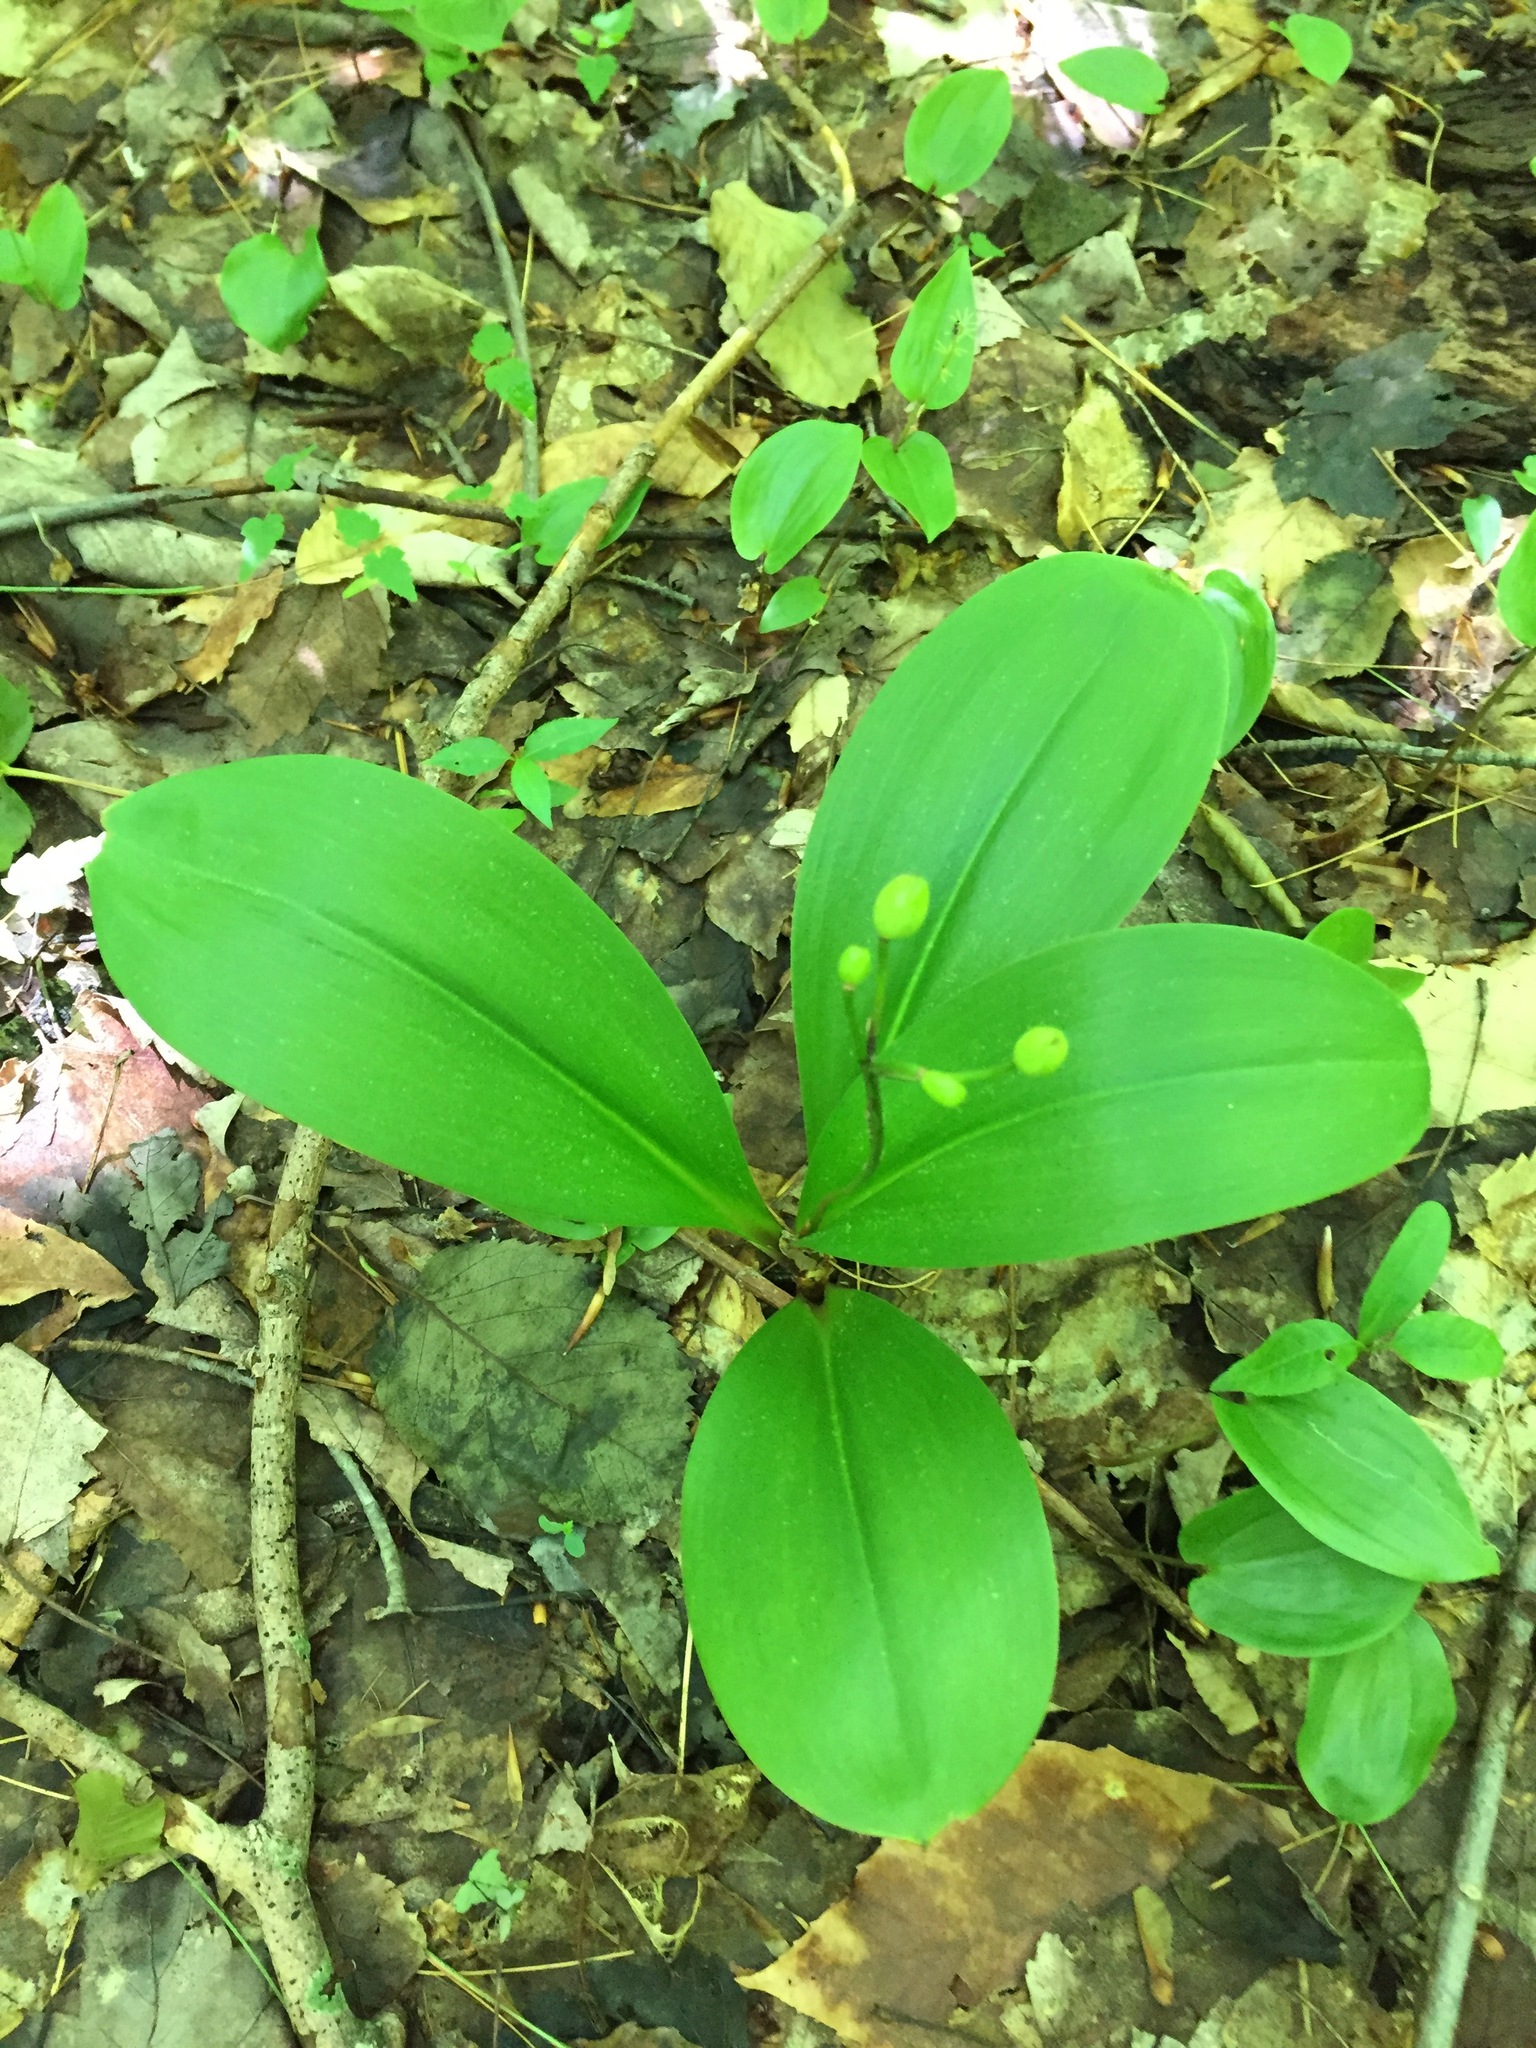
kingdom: Plantae
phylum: Tracheophyta
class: Liliopsida
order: Liliales
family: Liliaceae
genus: Clintonia
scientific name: Clintonia borealis
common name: Yellow clintonia
